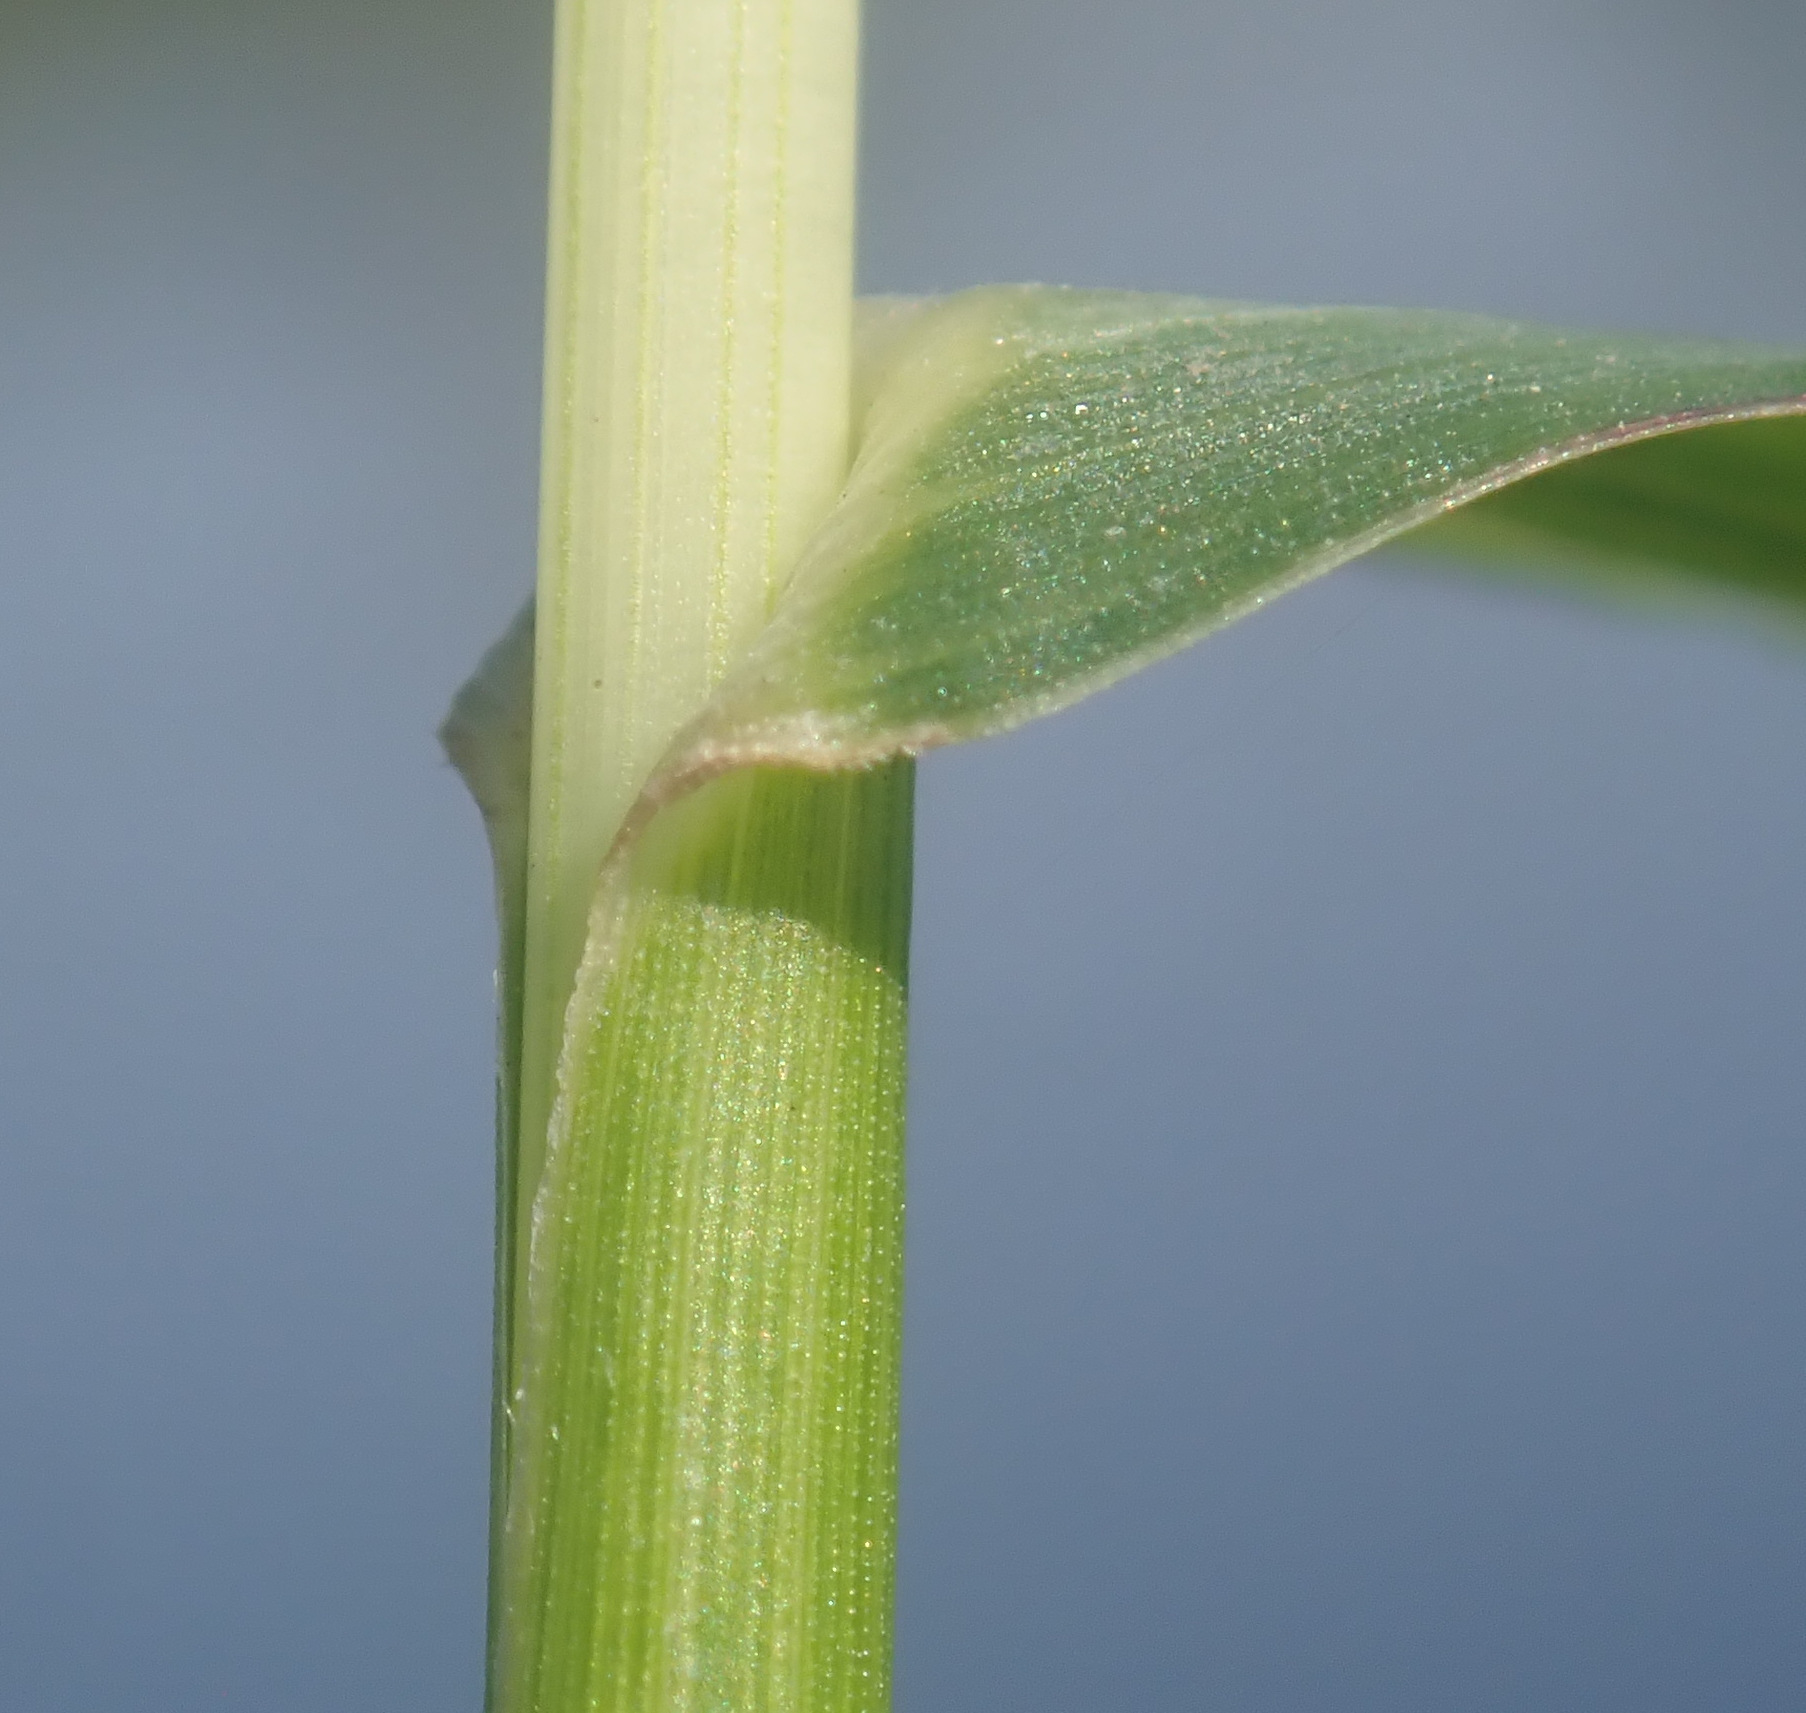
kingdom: Plantae
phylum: Tracheophyta
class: Liliopsida
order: Poales
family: Poaceae
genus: Echinochloa
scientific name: Echinochloa crus-galli
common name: Cockspur
